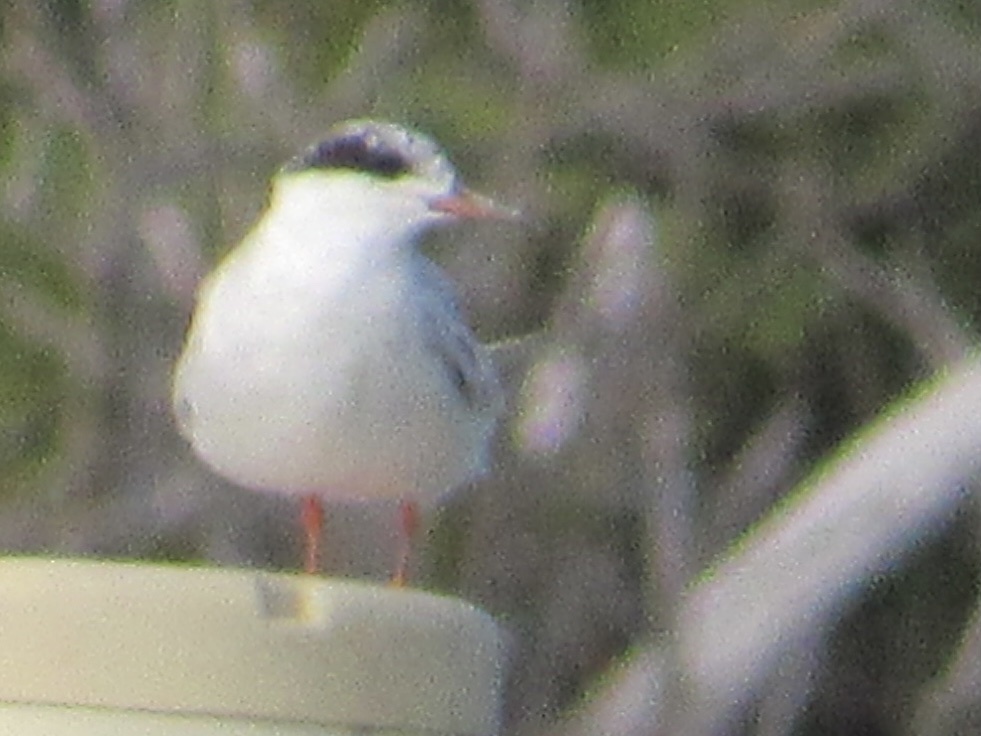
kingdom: Animalia
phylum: Chordata
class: Aves
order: Charadriiformes
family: Laridae
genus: Sterna
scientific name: Sterna forsteri
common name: Forster's tern
